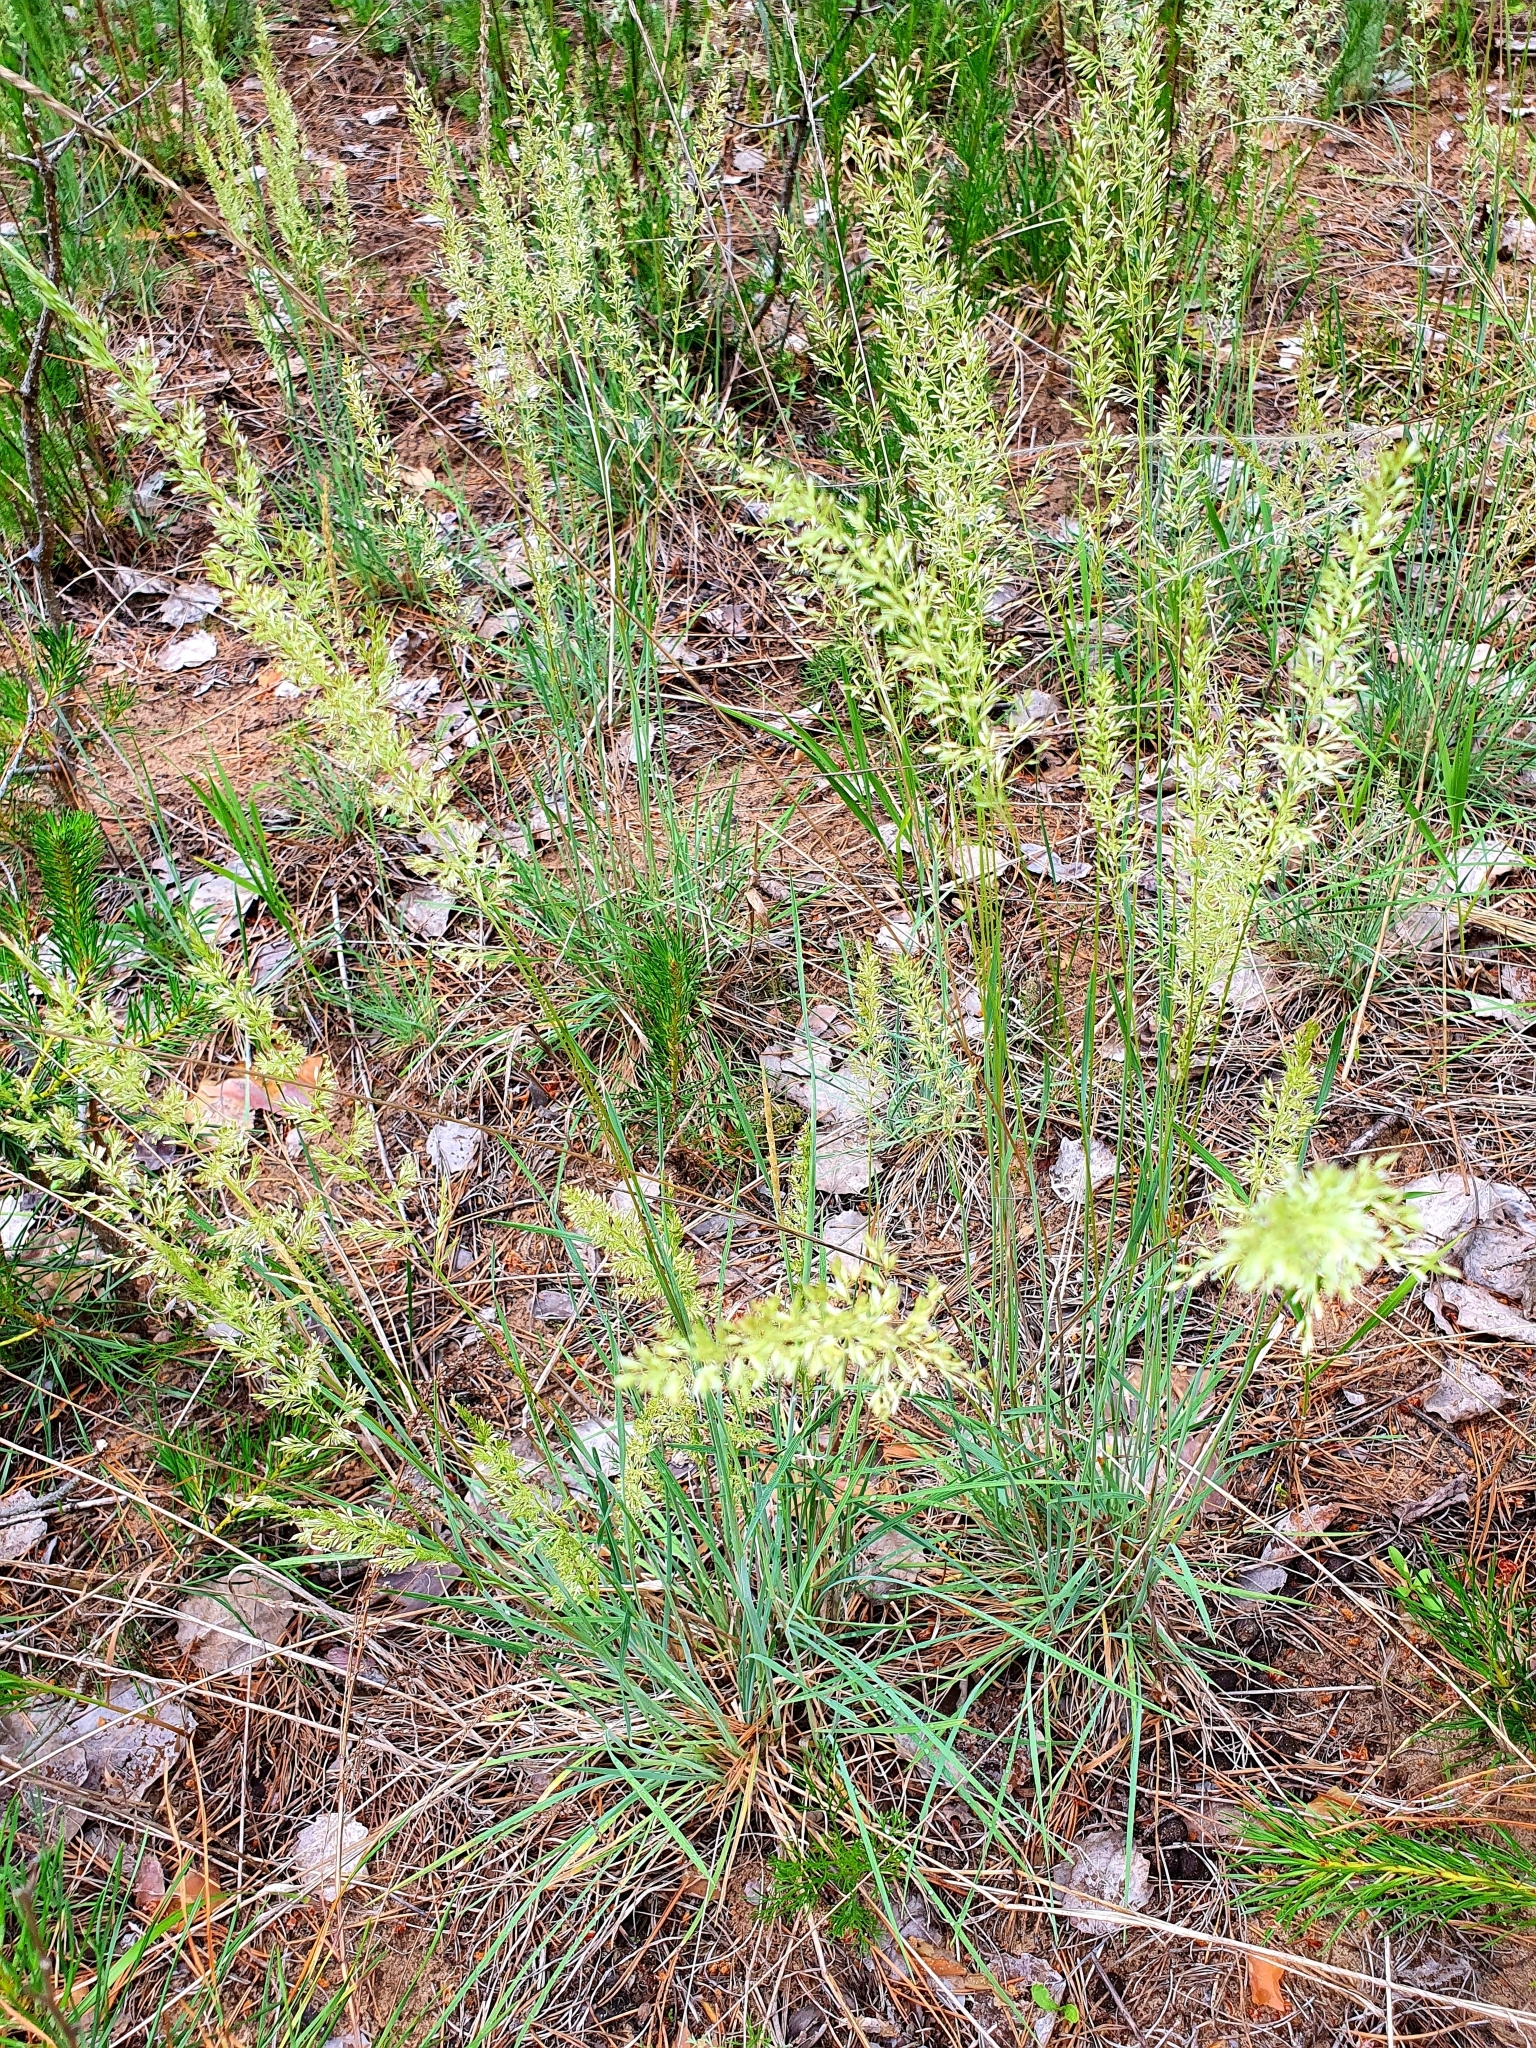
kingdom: Plantae
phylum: Tracheophyta
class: Liliopsida
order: Poales
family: Poaceae
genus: Koeleria
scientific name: Koeleria glauca
